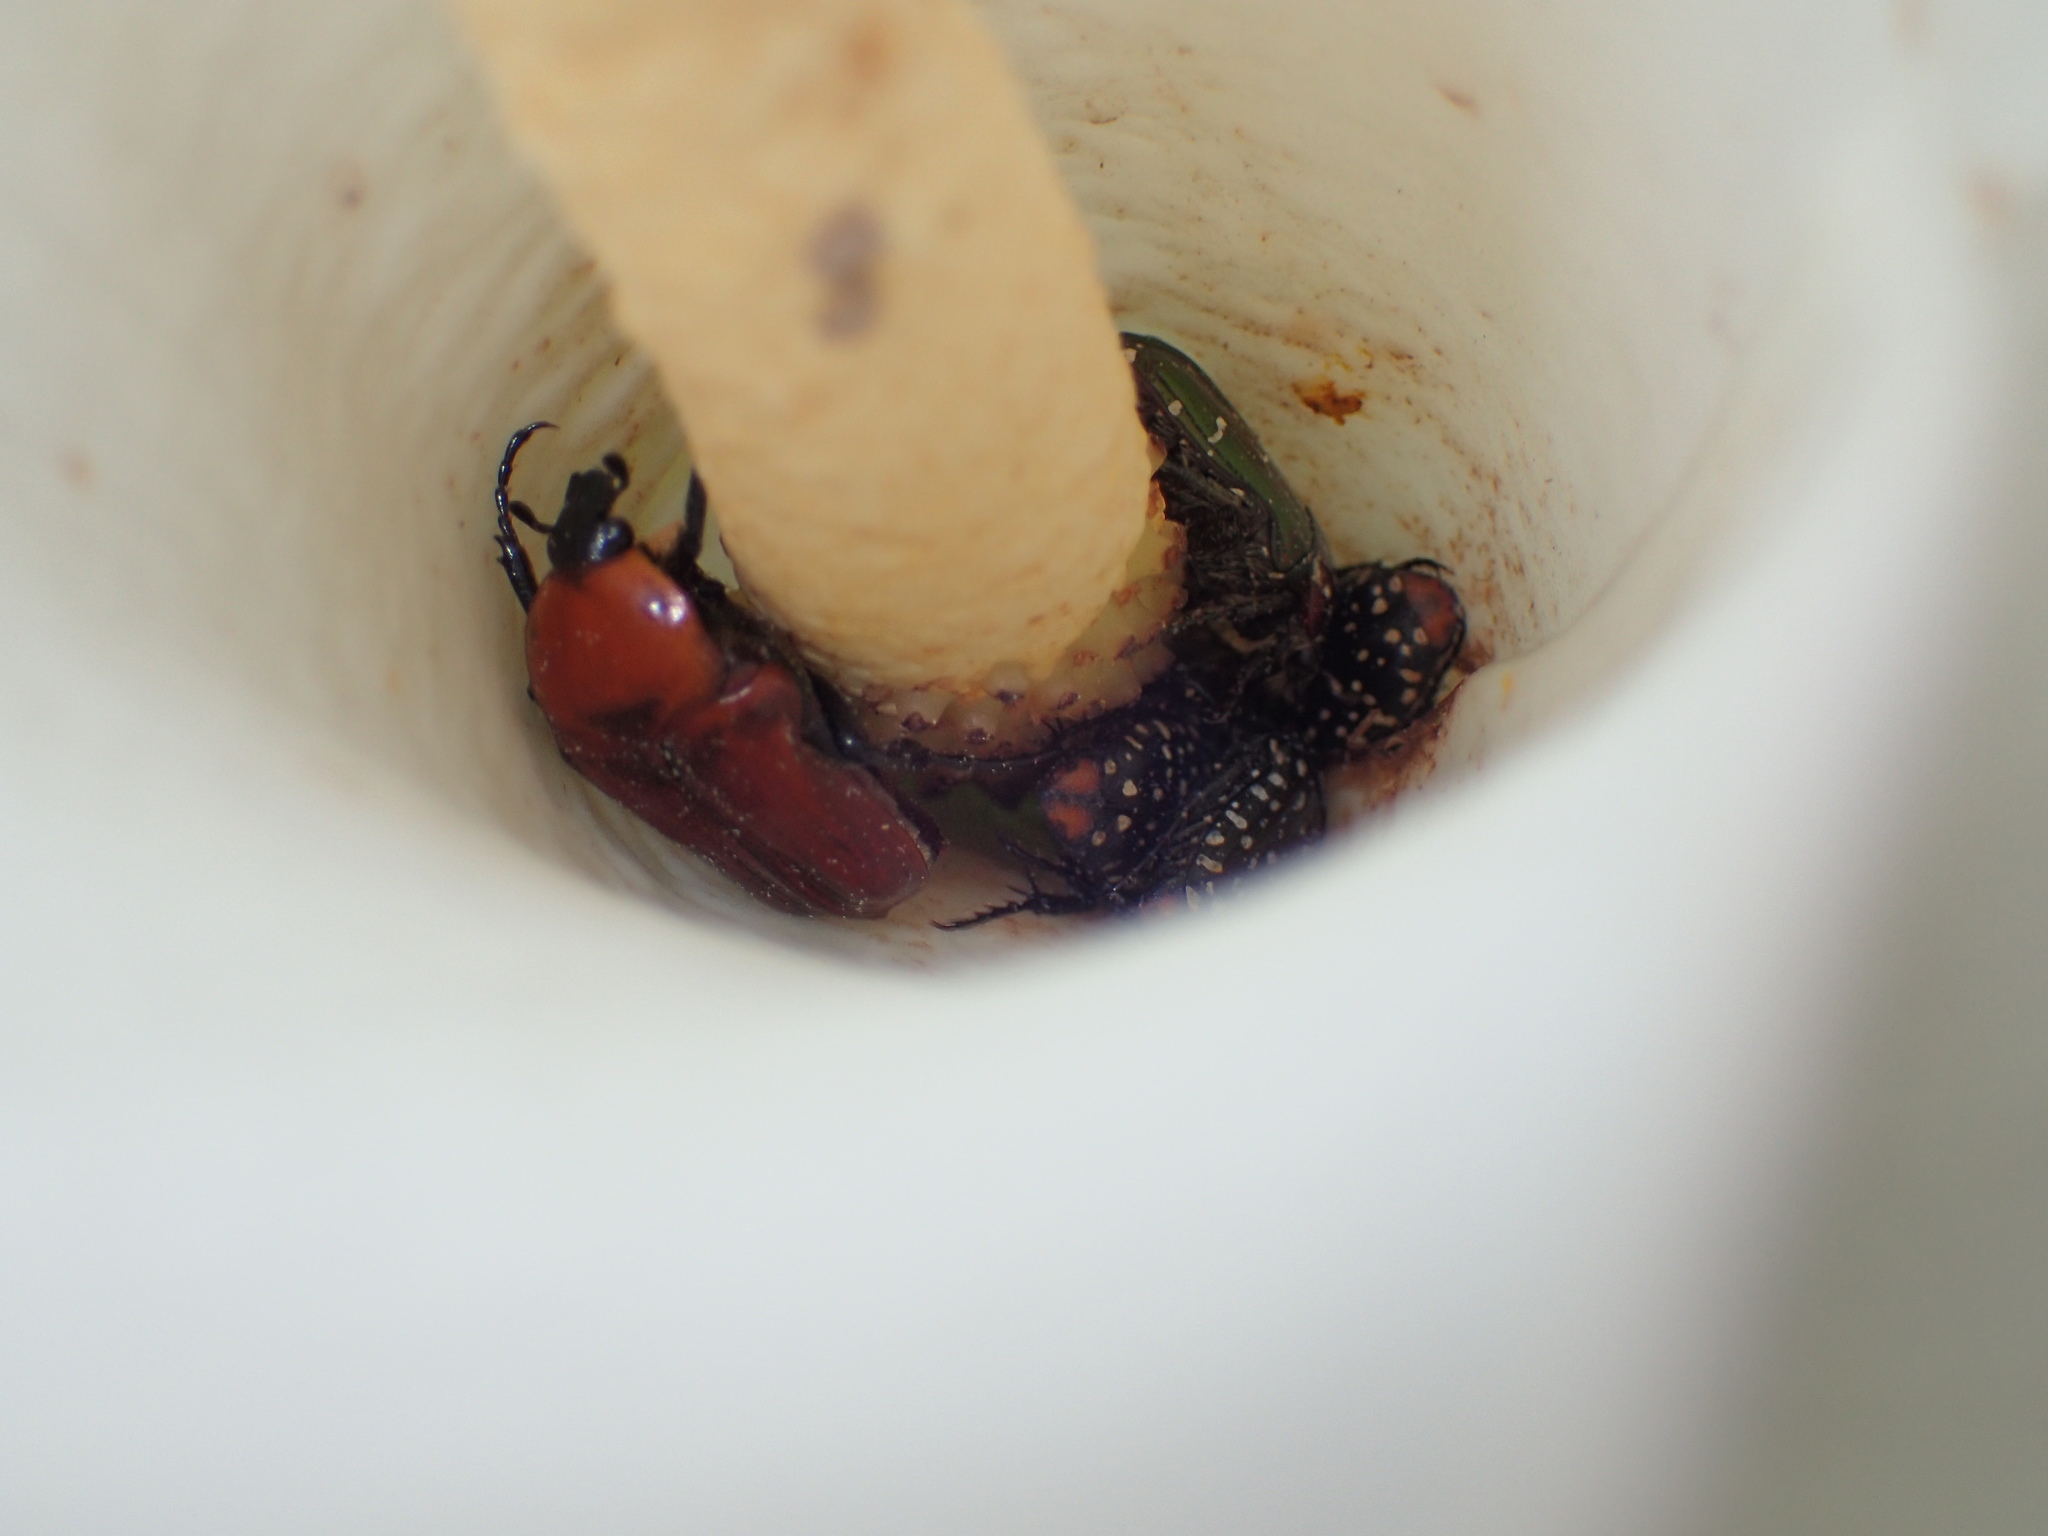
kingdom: Animalia
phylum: Arthropoda
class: Insecta
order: Coleoptera
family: Scarabaeidae
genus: Leucocelis
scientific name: Leucocelis rubra
